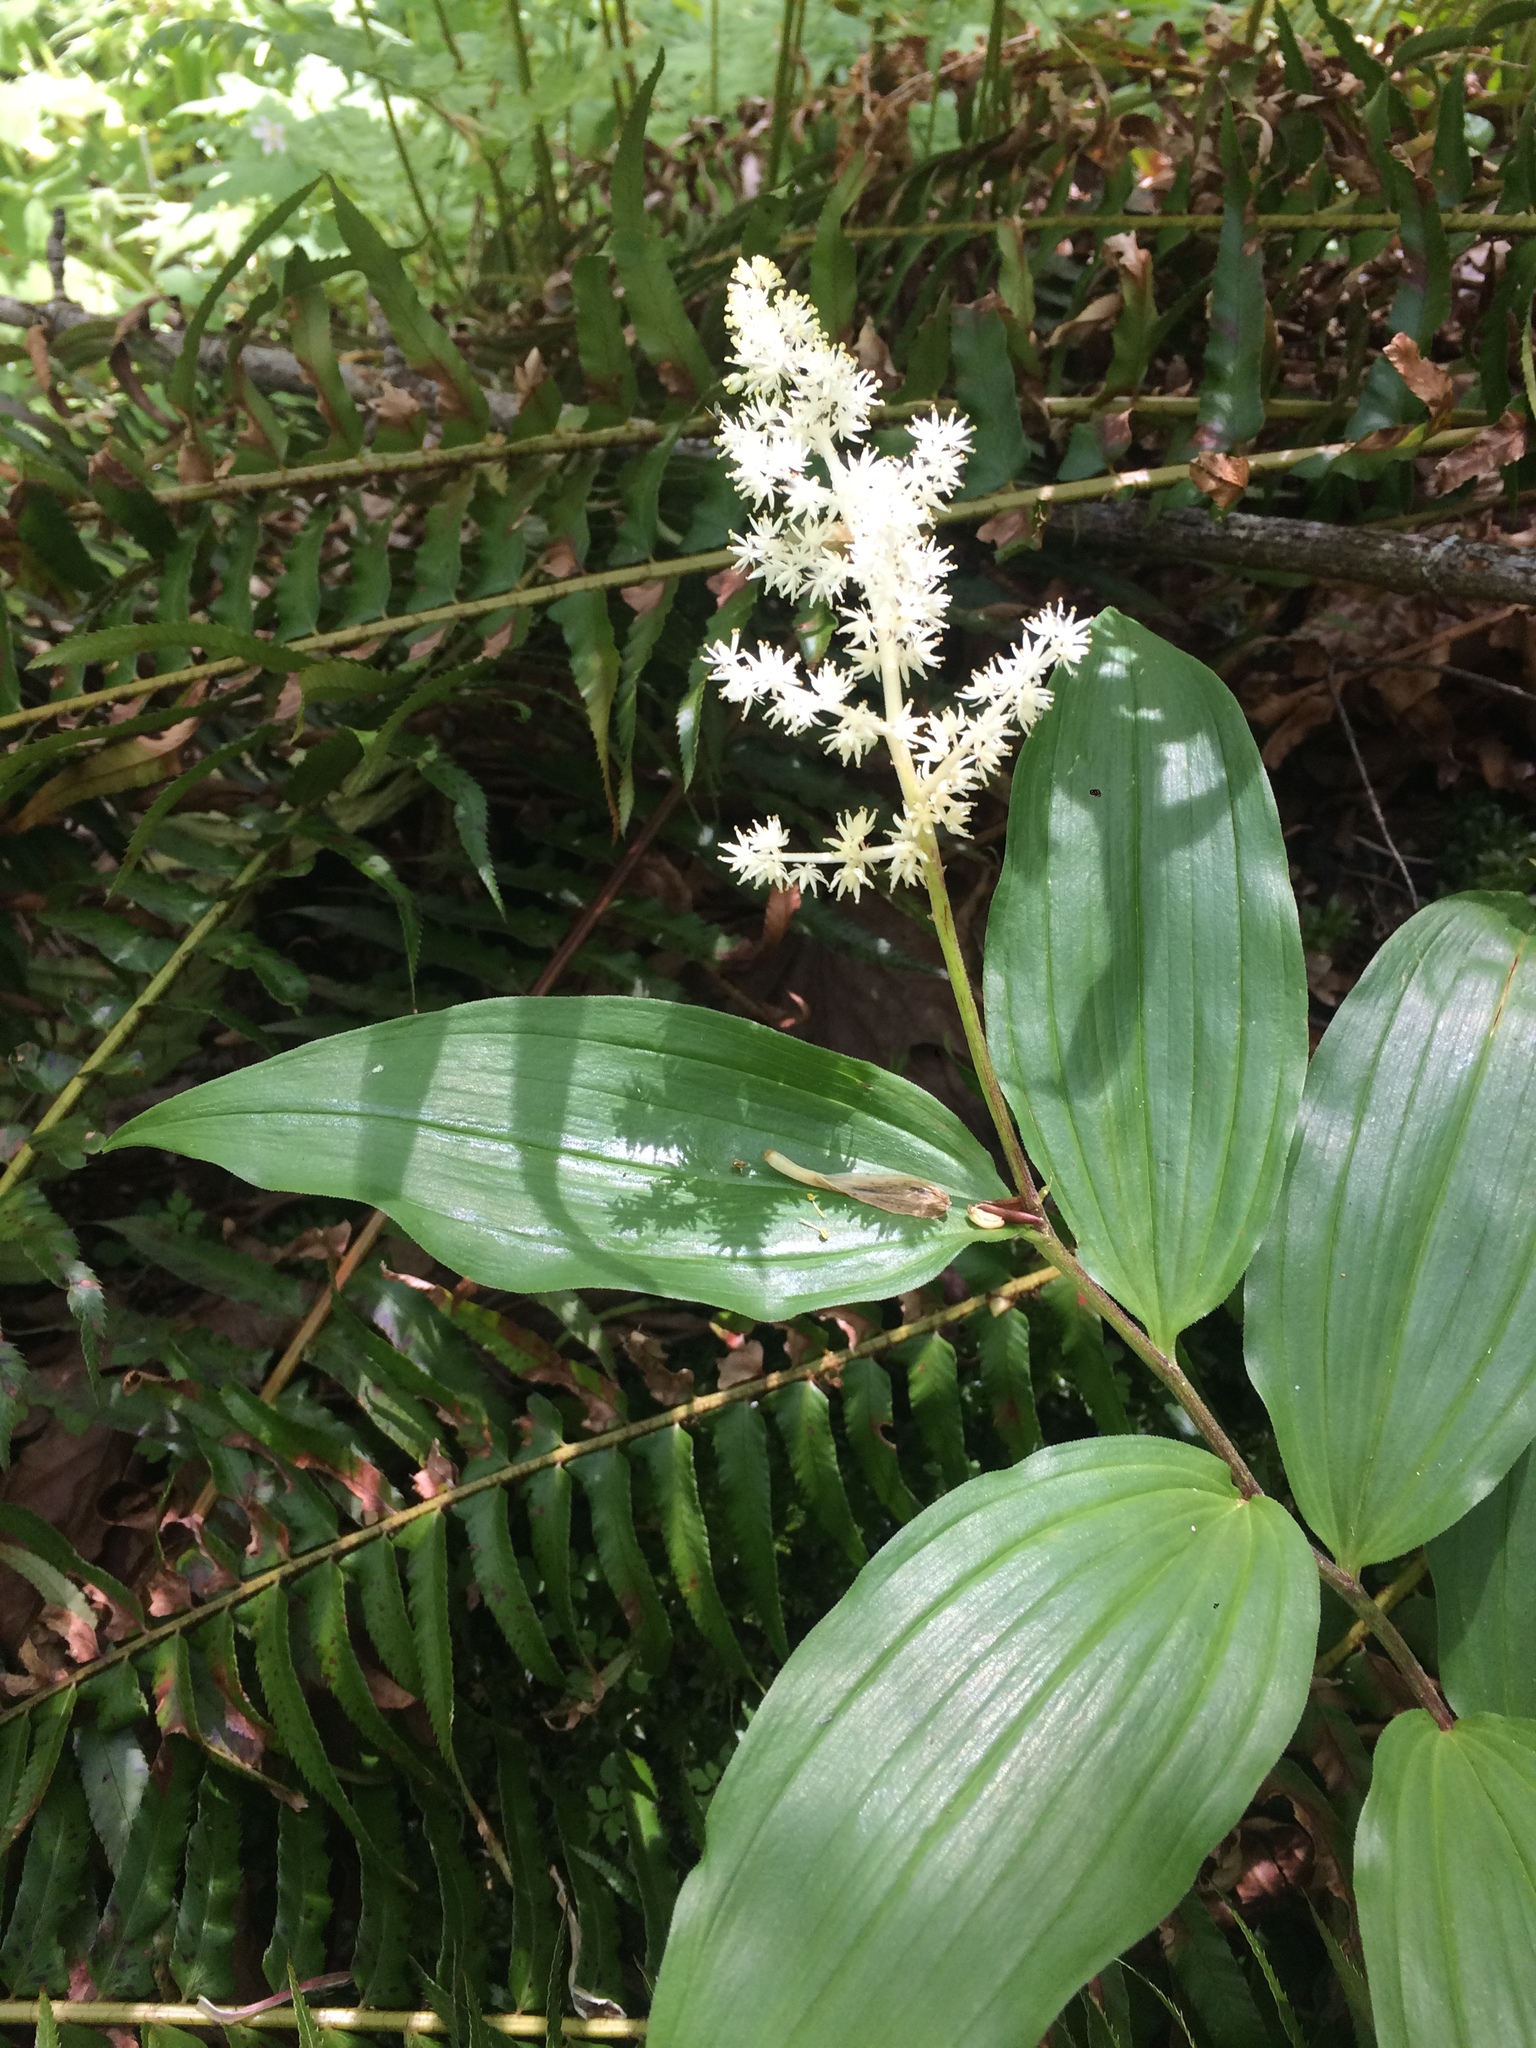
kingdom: Plantae
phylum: Tracheophyta
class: Liliopsida
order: Asparagales
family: Asparagaceae
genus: Maianthemum
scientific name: Maianthemum racemosum
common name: False spikenard
